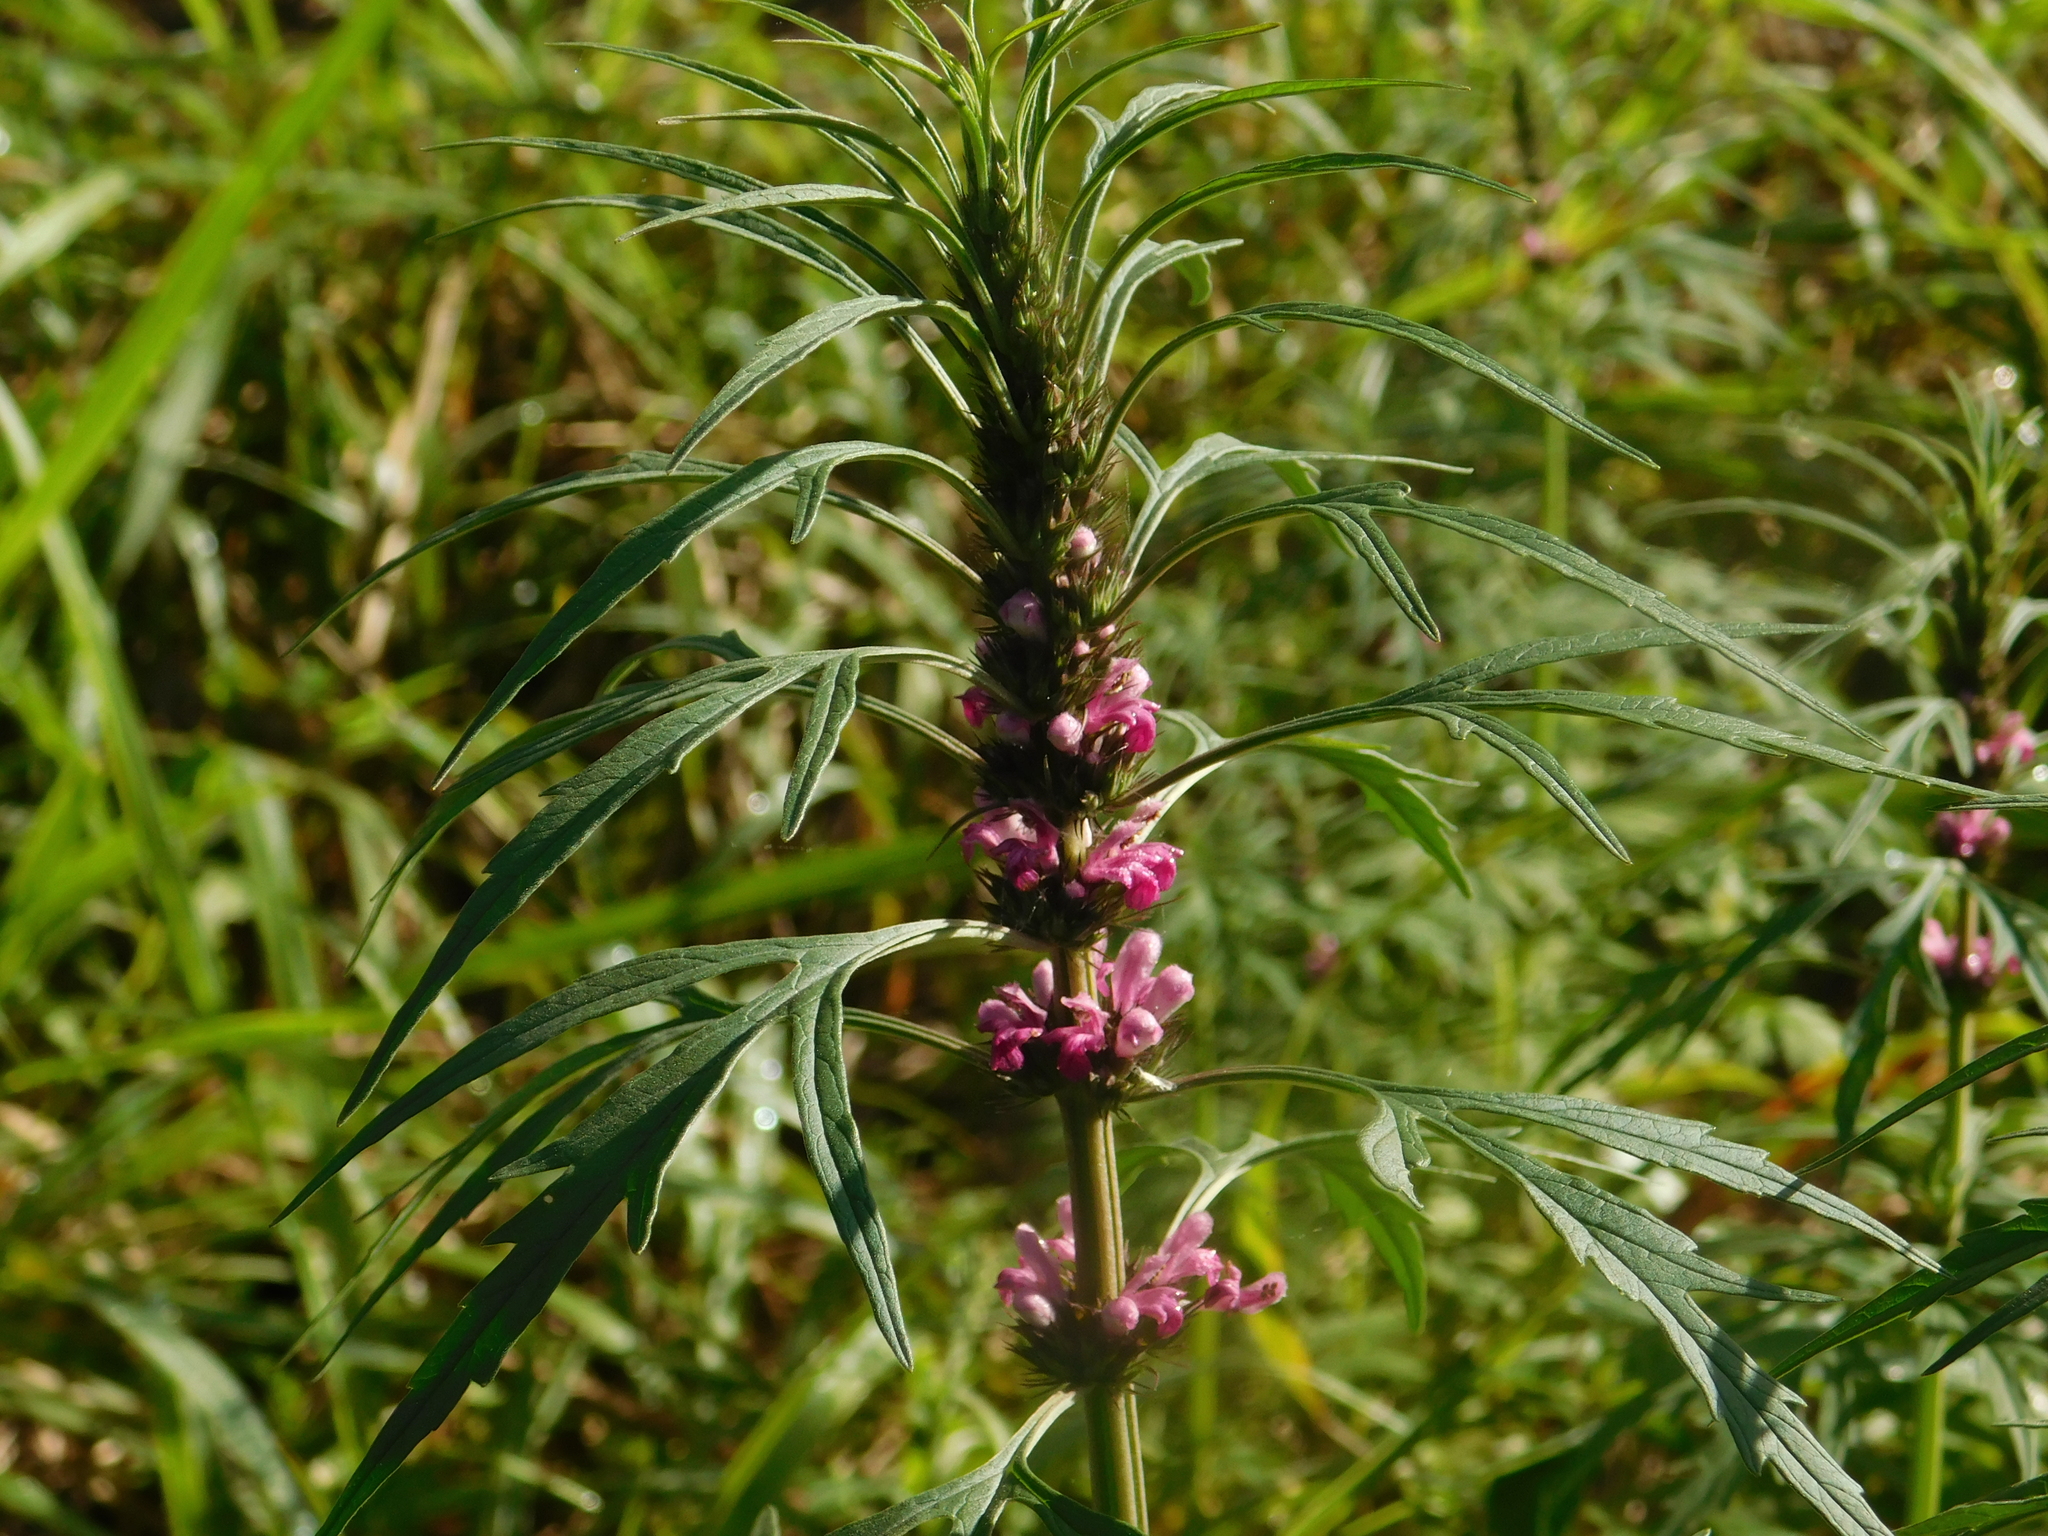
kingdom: Plantae
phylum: Tracheophyta
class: Magnoliopsida
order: Lamiales
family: Lamiaceae
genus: Leonurus
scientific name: Leonurus japonicus
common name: Honeyweed
